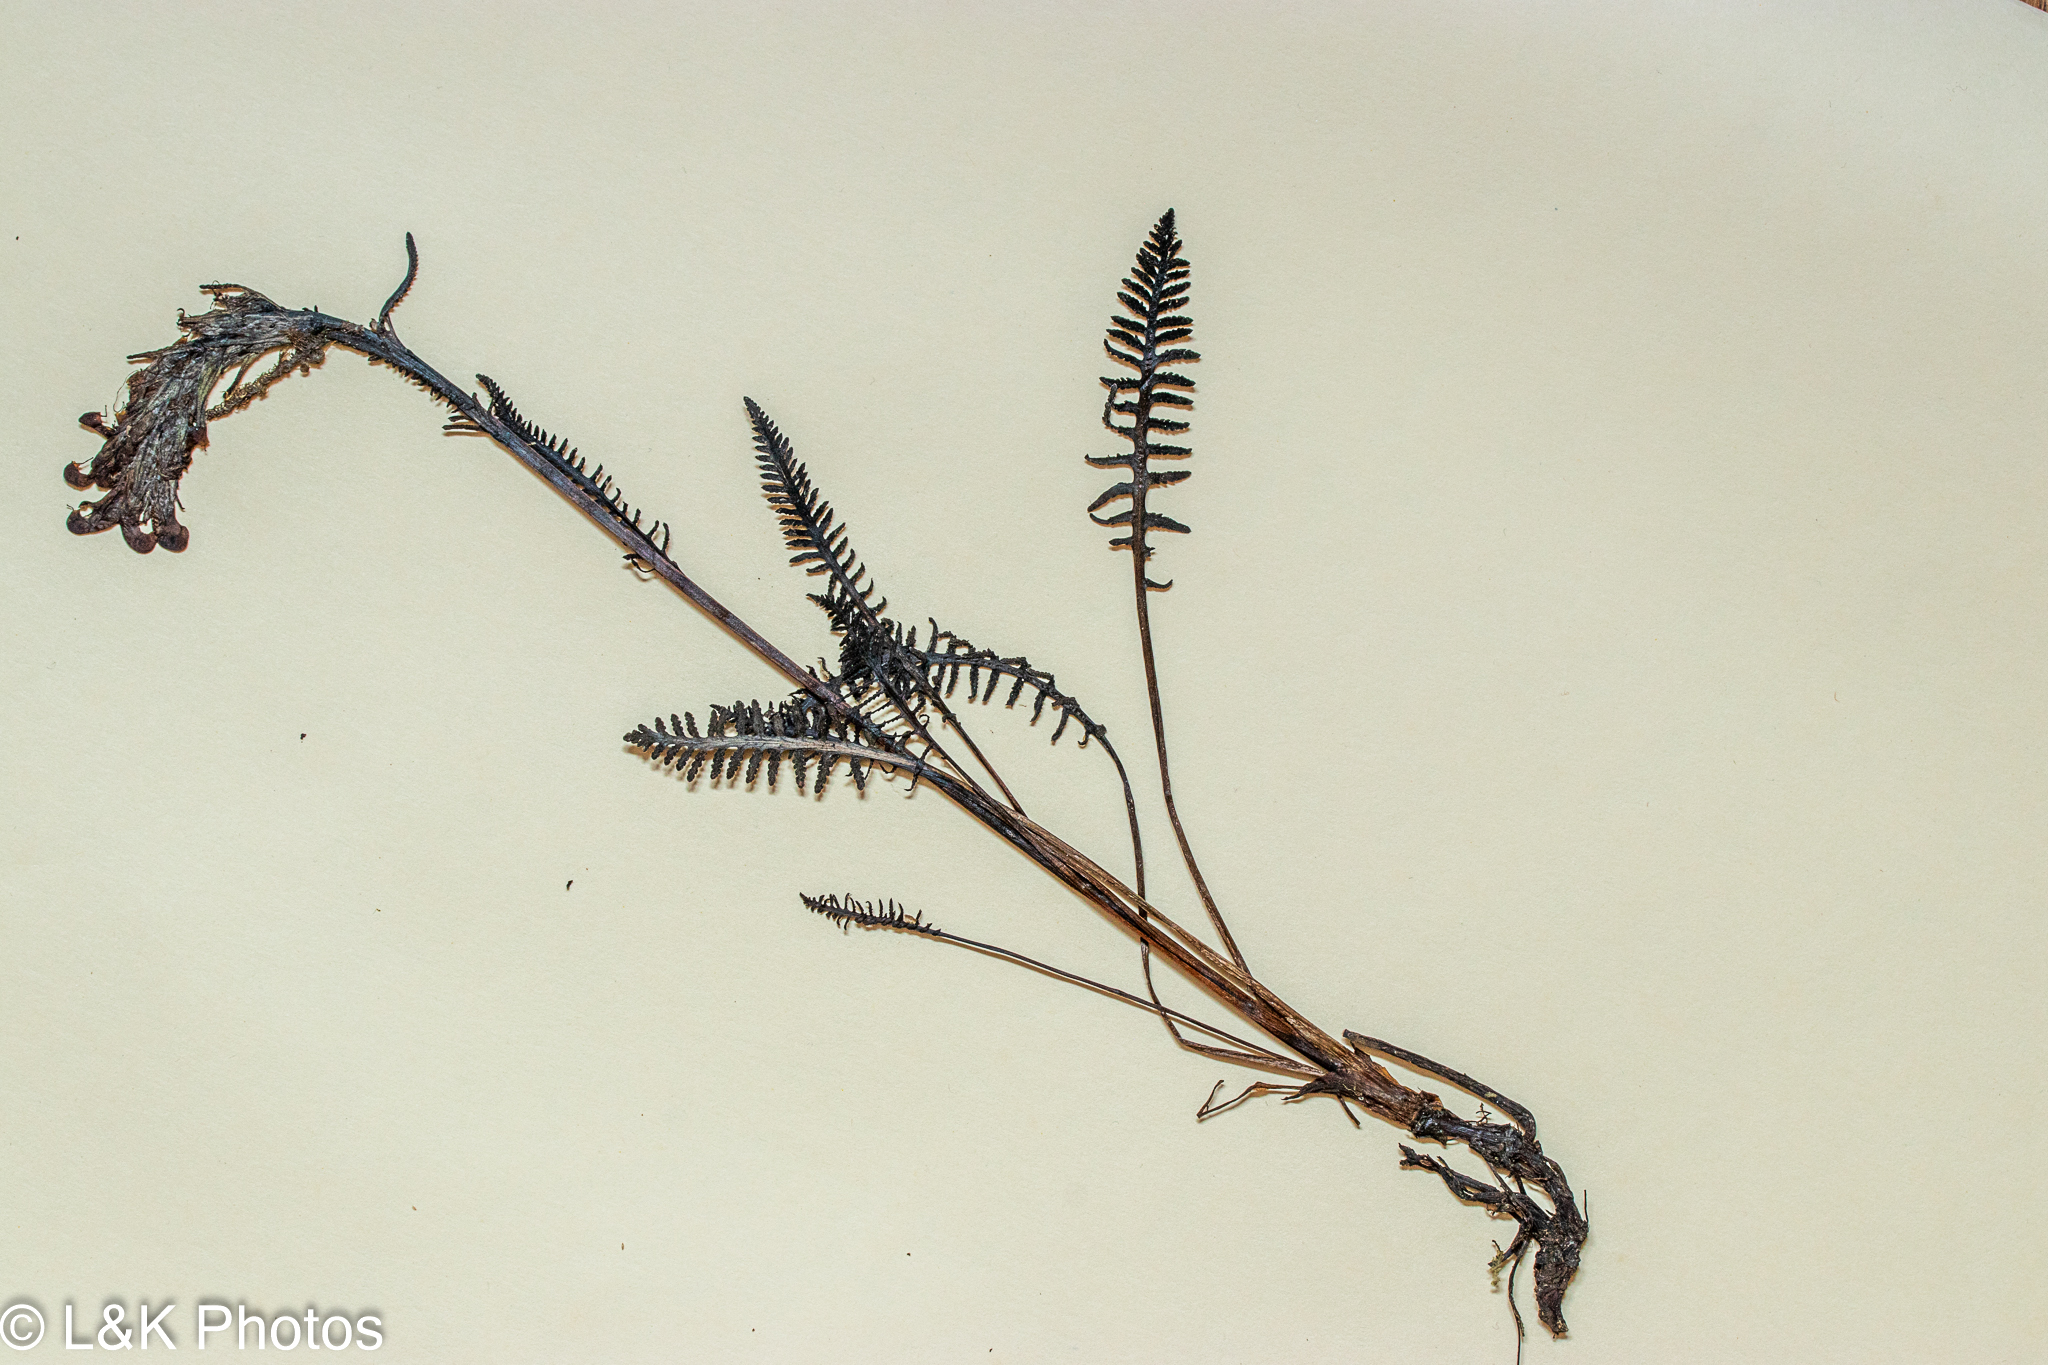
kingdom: Plantae
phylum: Tracheophyta
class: Magnoliopsida
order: Lamiales
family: Orobanchaceae
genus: Pedicularis
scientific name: Pedicularis sudetica
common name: Sudeten lousewort
